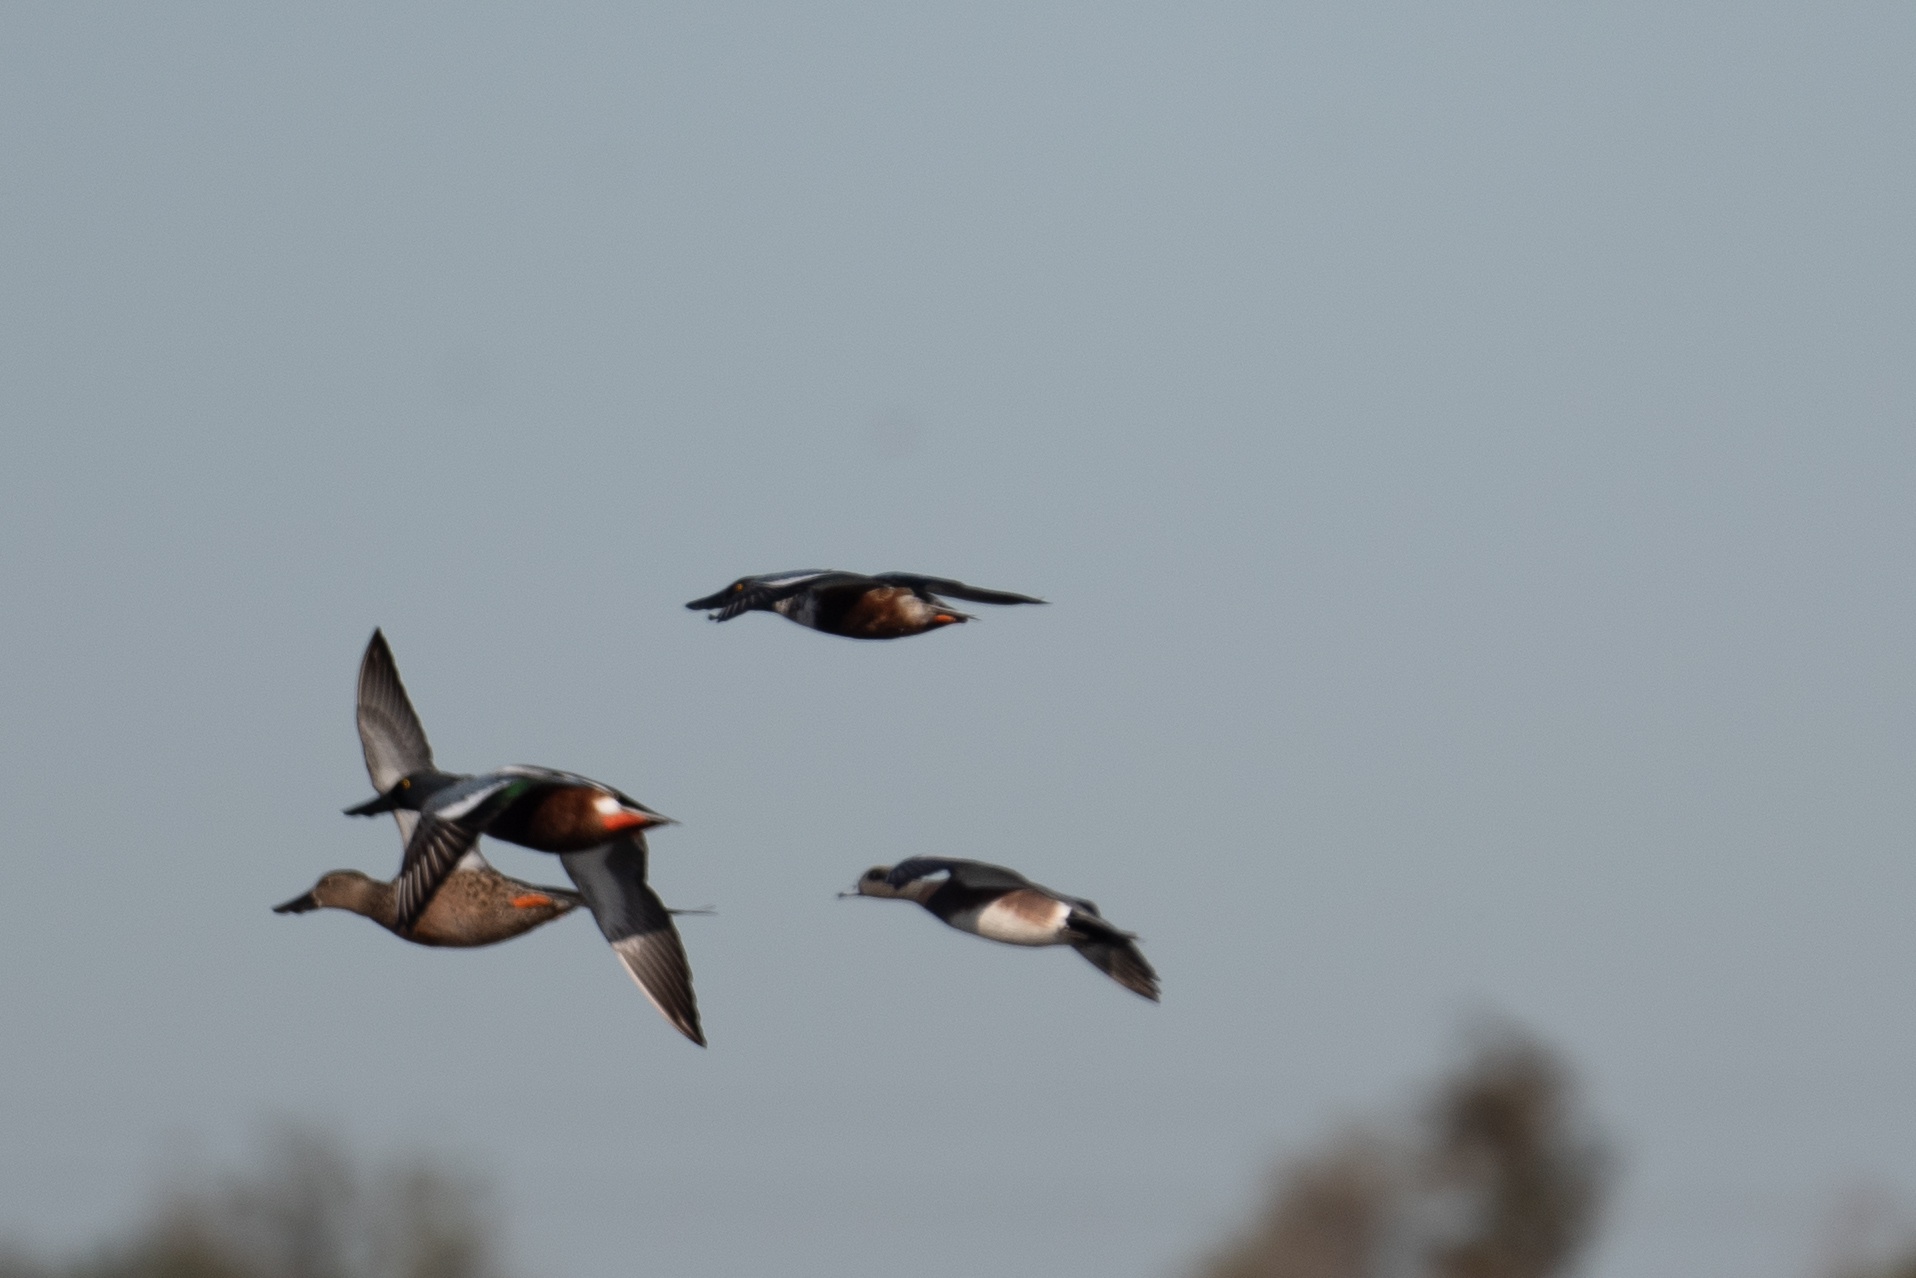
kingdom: Animalia
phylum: Chordata
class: Aves
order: Anseriformes
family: Anatidae
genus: Spatula
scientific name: Spatula clypeata
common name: Northern shoveler
